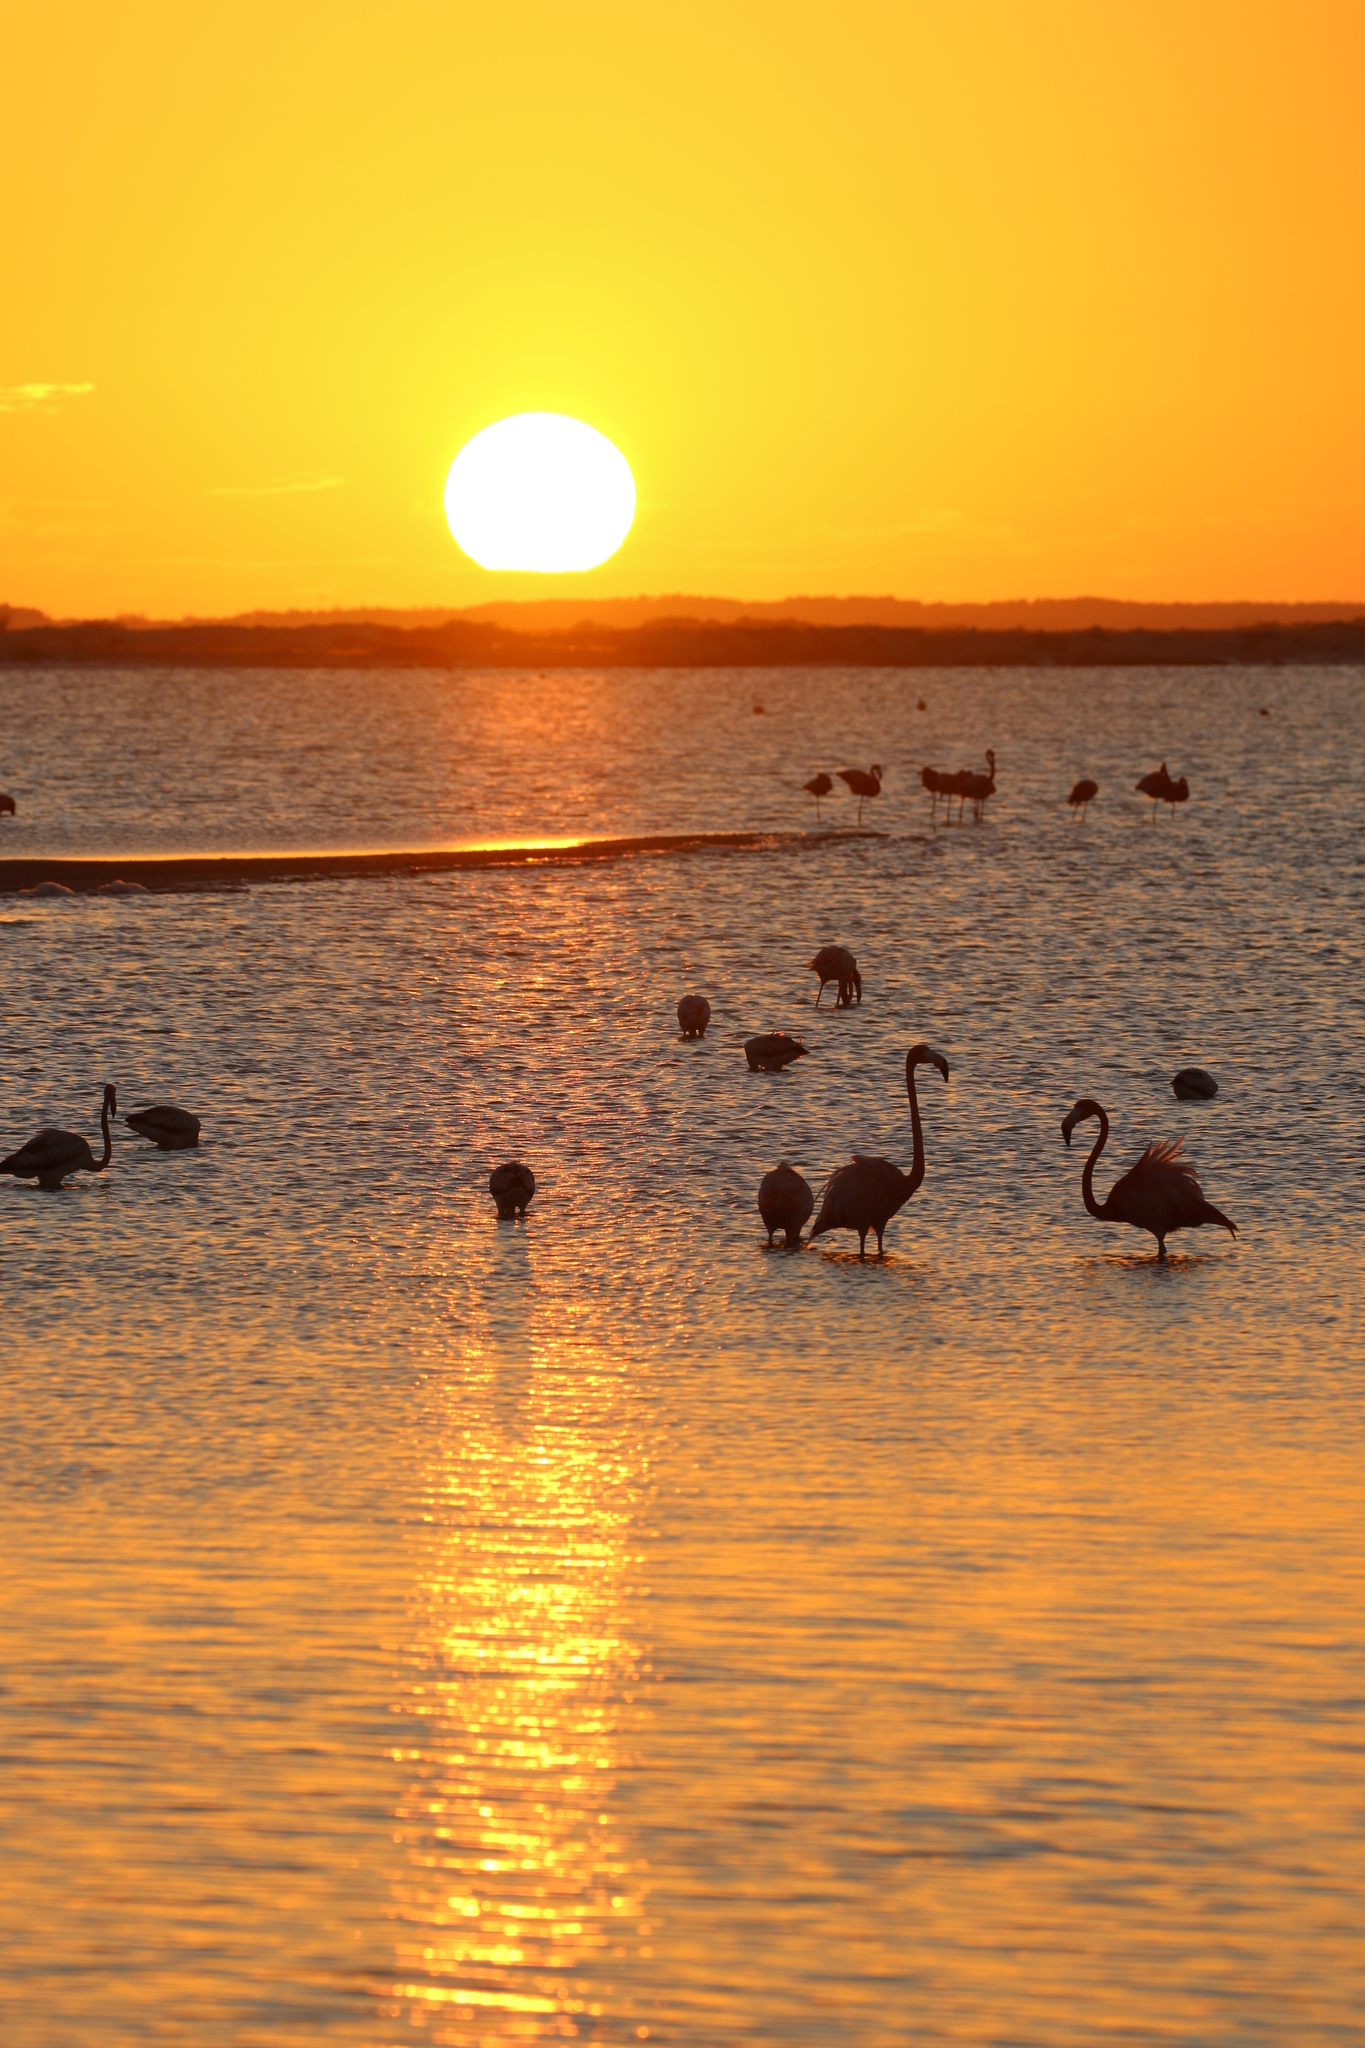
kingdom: Animalia
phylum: Chordata
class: Aves
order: Phoenicopteriformes
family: Phoenicopteridae
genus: Phoenicopterus
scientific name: Phoenicopterus ruber
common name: American flamingo
